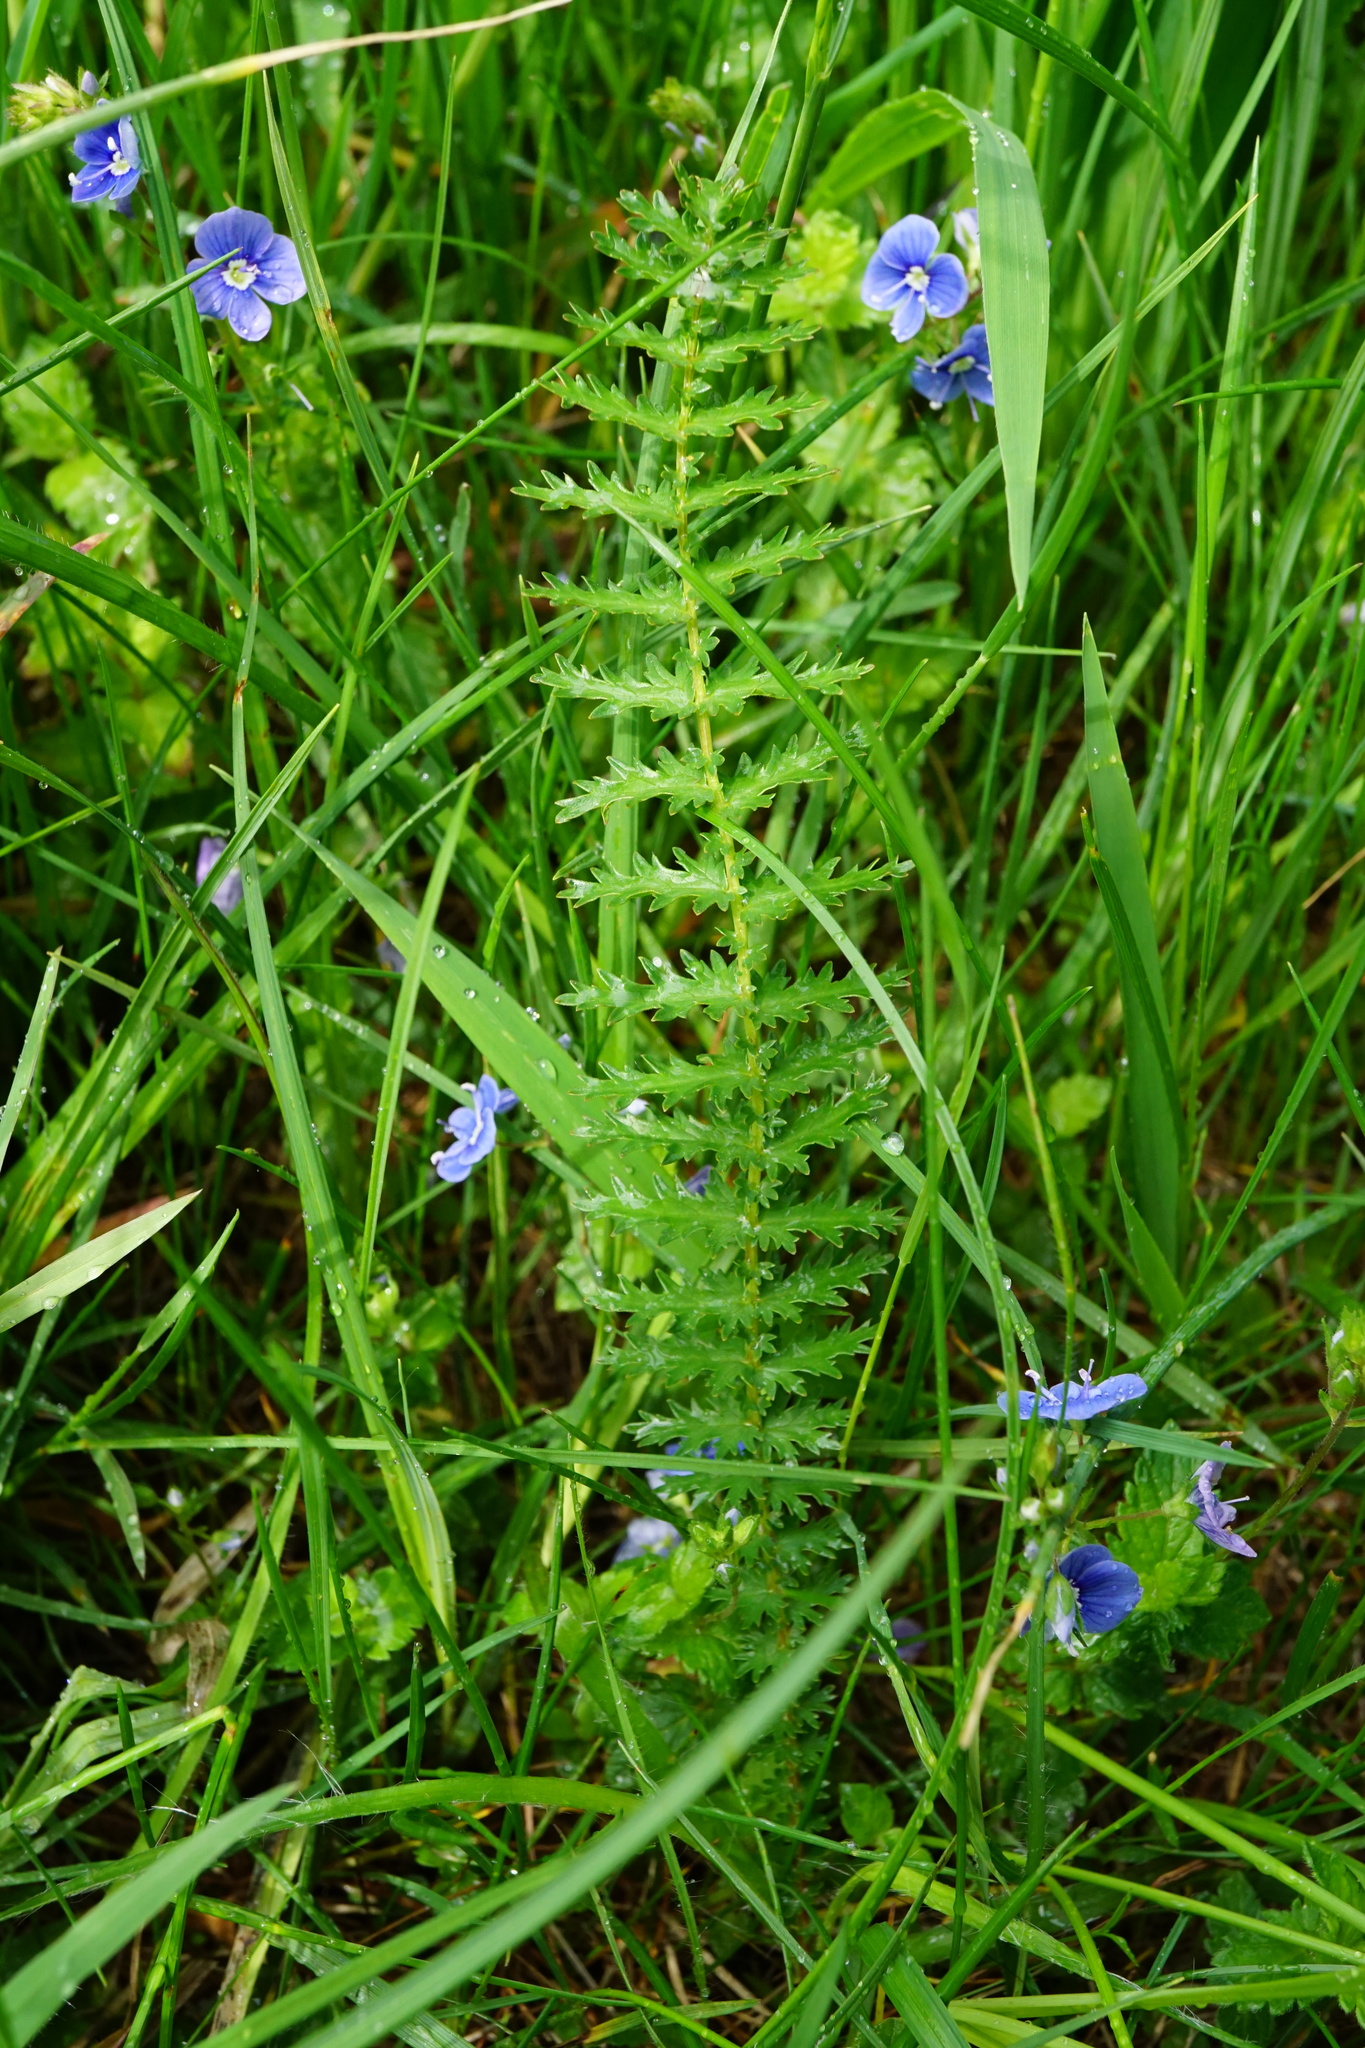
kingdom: Plantae
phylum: Tracheophyta
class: Magnoliopsida
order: Rosales
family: Rosaceae
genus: Filipendula
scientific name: Filipendula vulgaris
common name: Dropwort
